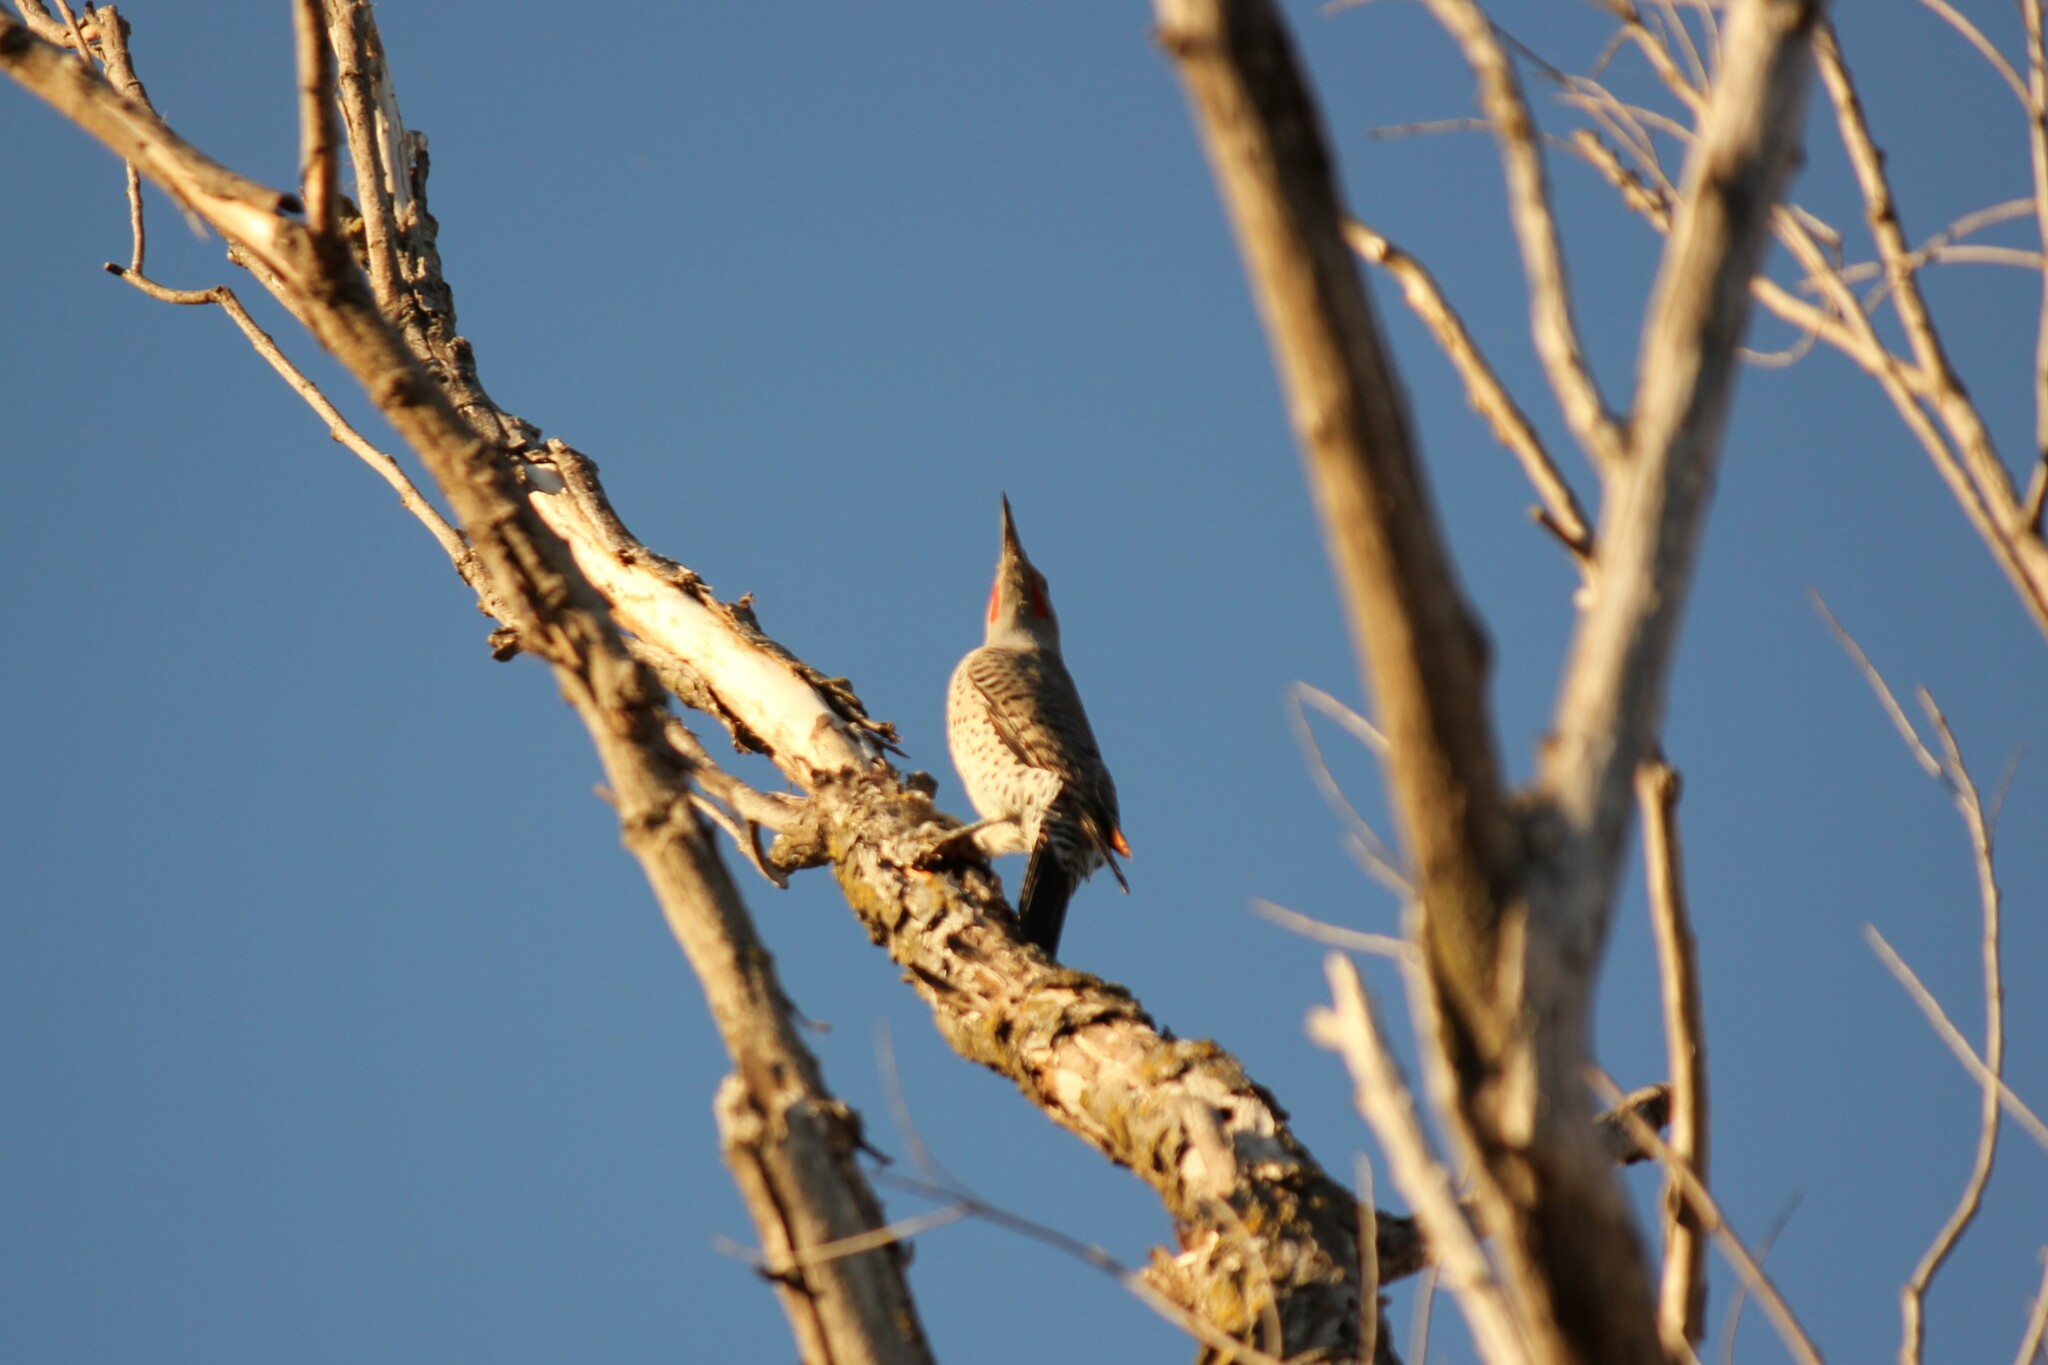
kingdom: Animalia
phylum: Chordata
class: Aves
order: Piciformes
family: Picidae
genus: Colaptes
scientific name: Colaptes auratus
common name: Northern flicker
